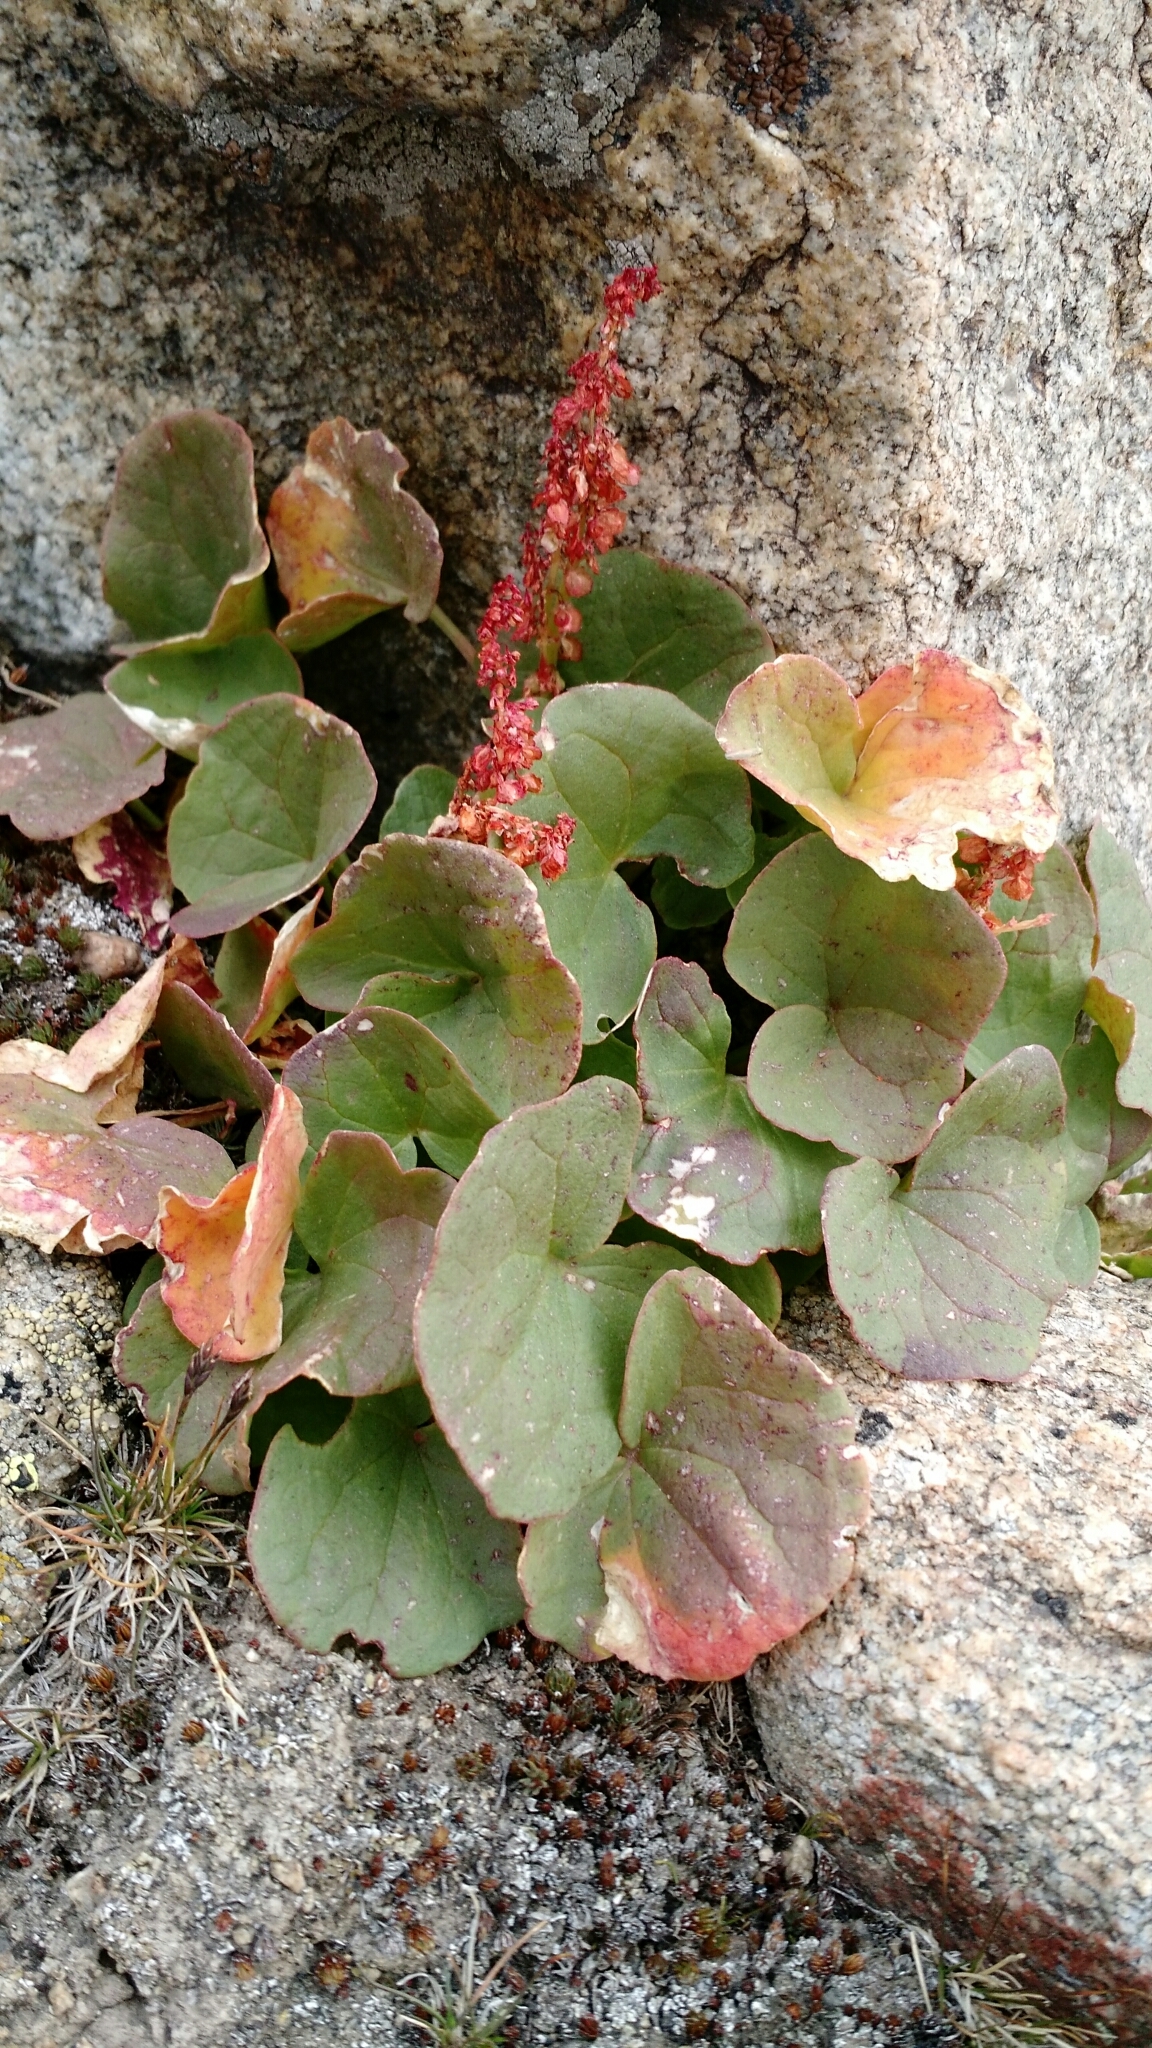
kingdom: Plantae
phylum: Tracheophyta
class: Magnoliopsida
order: Caryophyllales
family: Polygonaceae
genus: Oxyria
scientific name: Oxyria digyna
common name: Alpine mountain-sorrel
